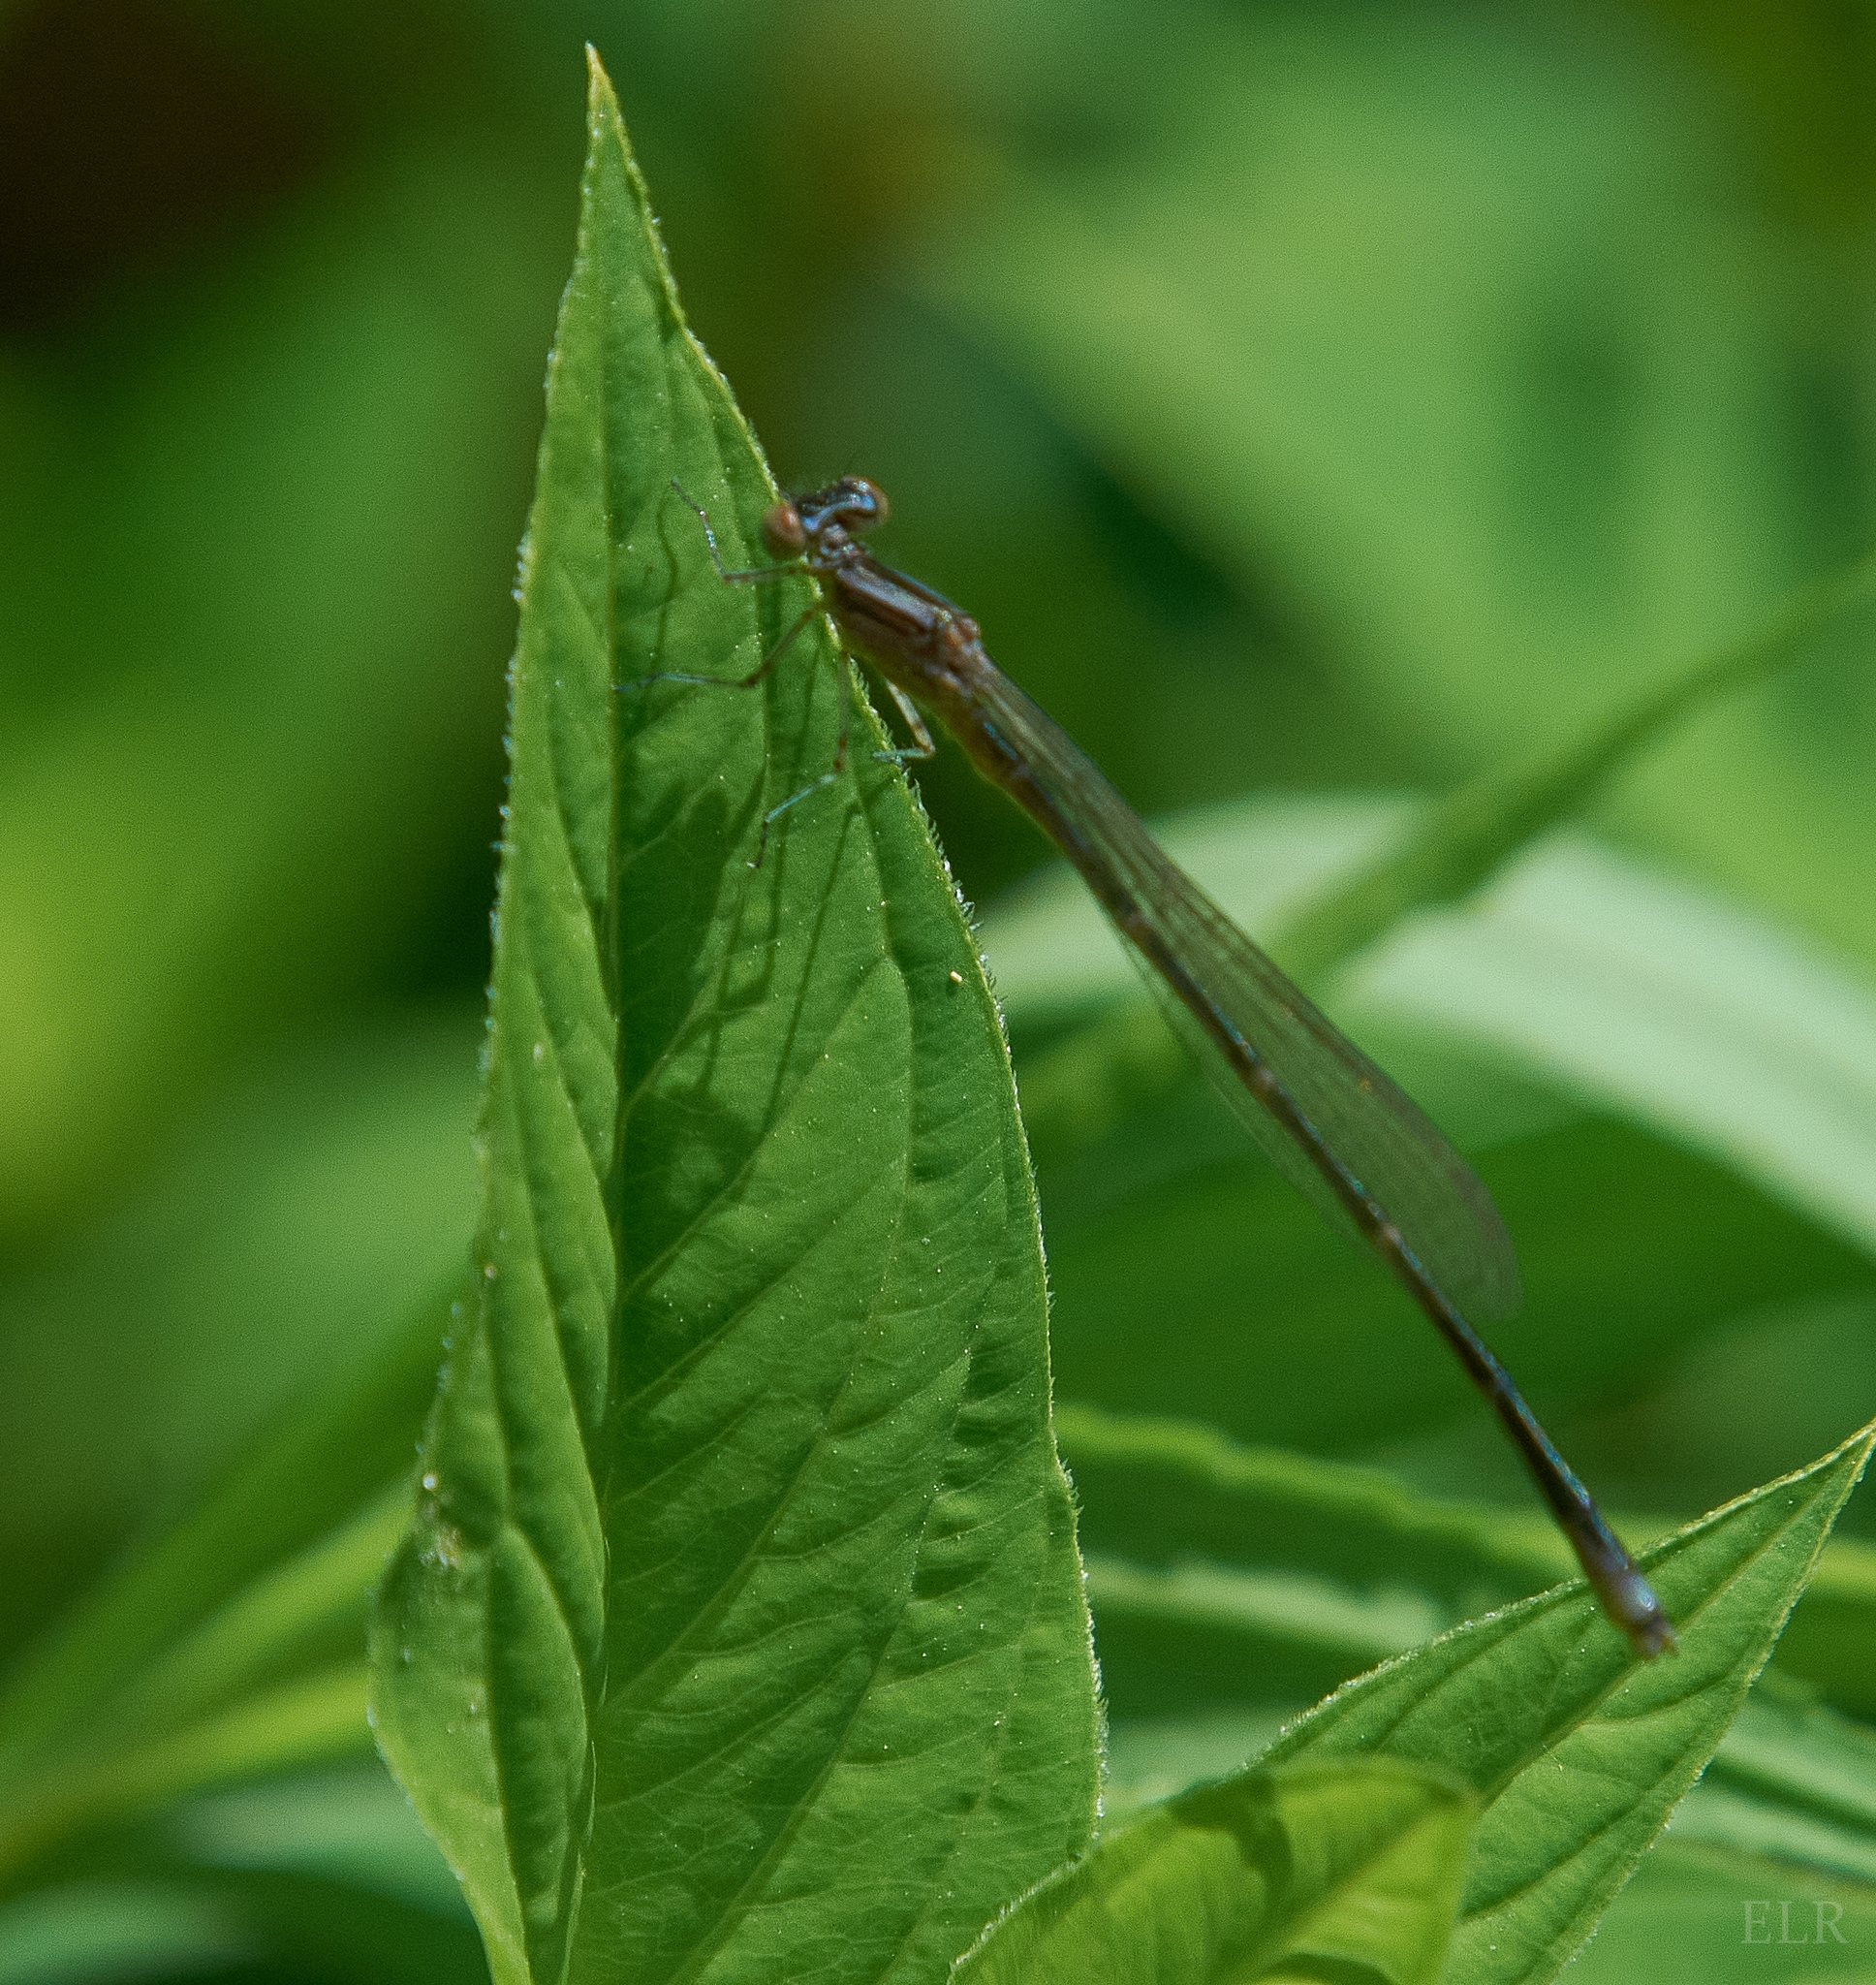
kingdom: Animalia
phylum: Arthropoda
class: Insecta
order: Odonata
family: Coenagrionidae
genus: Enallagma
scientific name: Enallagma exsulans
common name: Stream bluet
